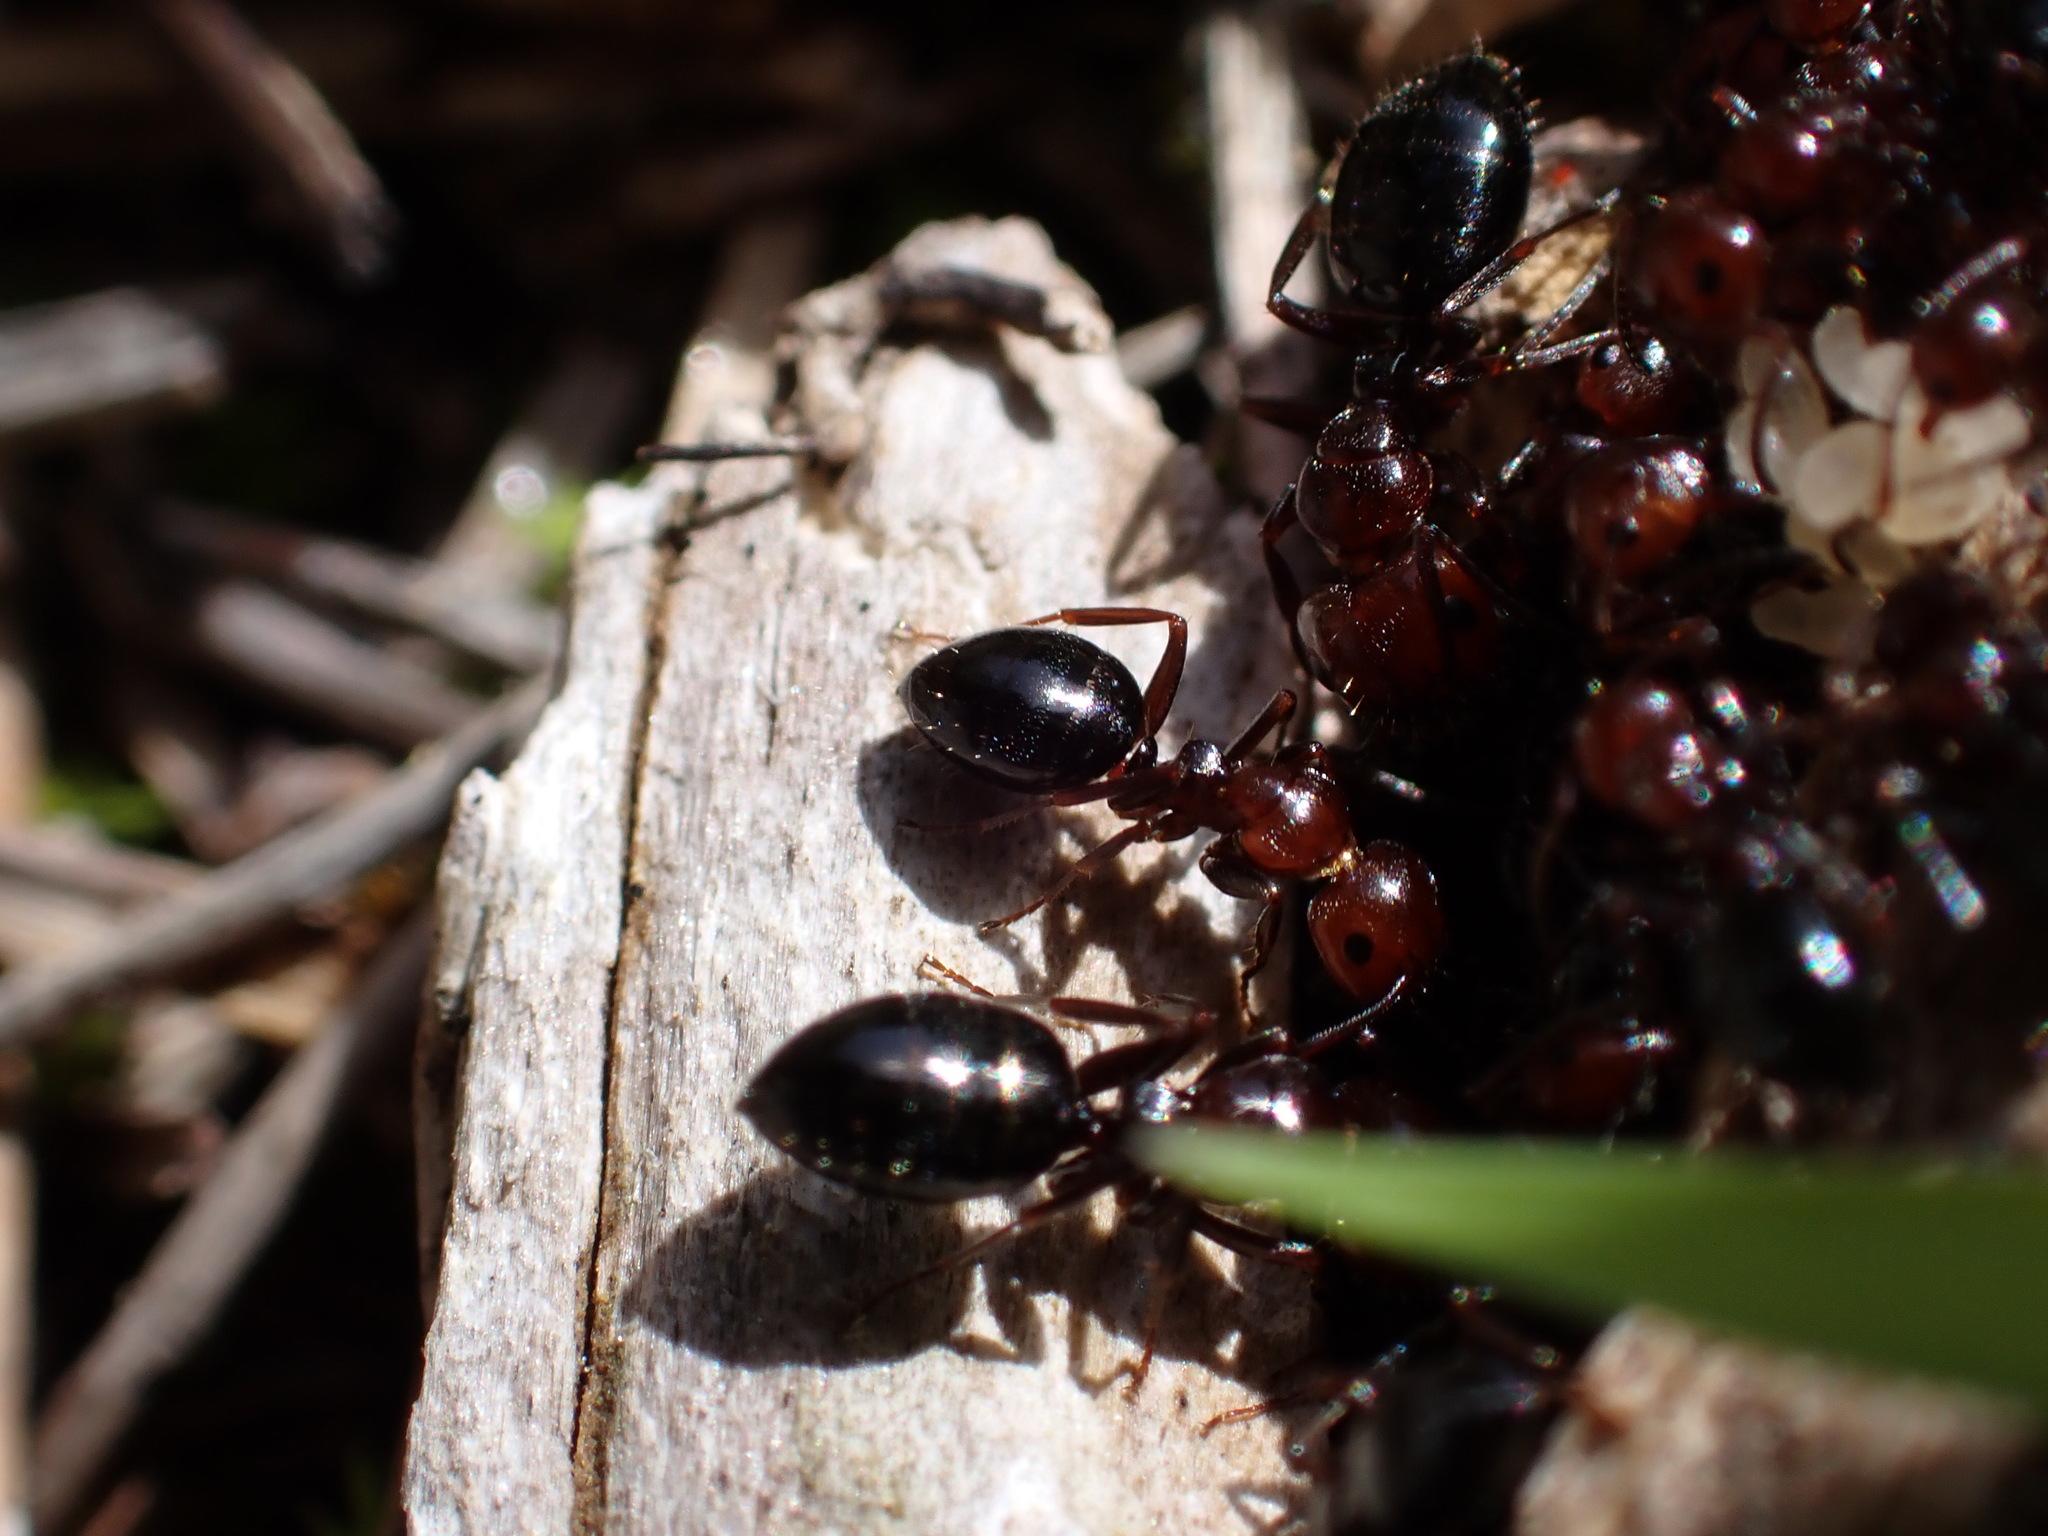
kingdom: Animalia
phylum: Arthropoda
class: Insecta
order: Hymenoptera
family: Formicidae
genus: Camponotus
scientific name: Camponotus lateralis
